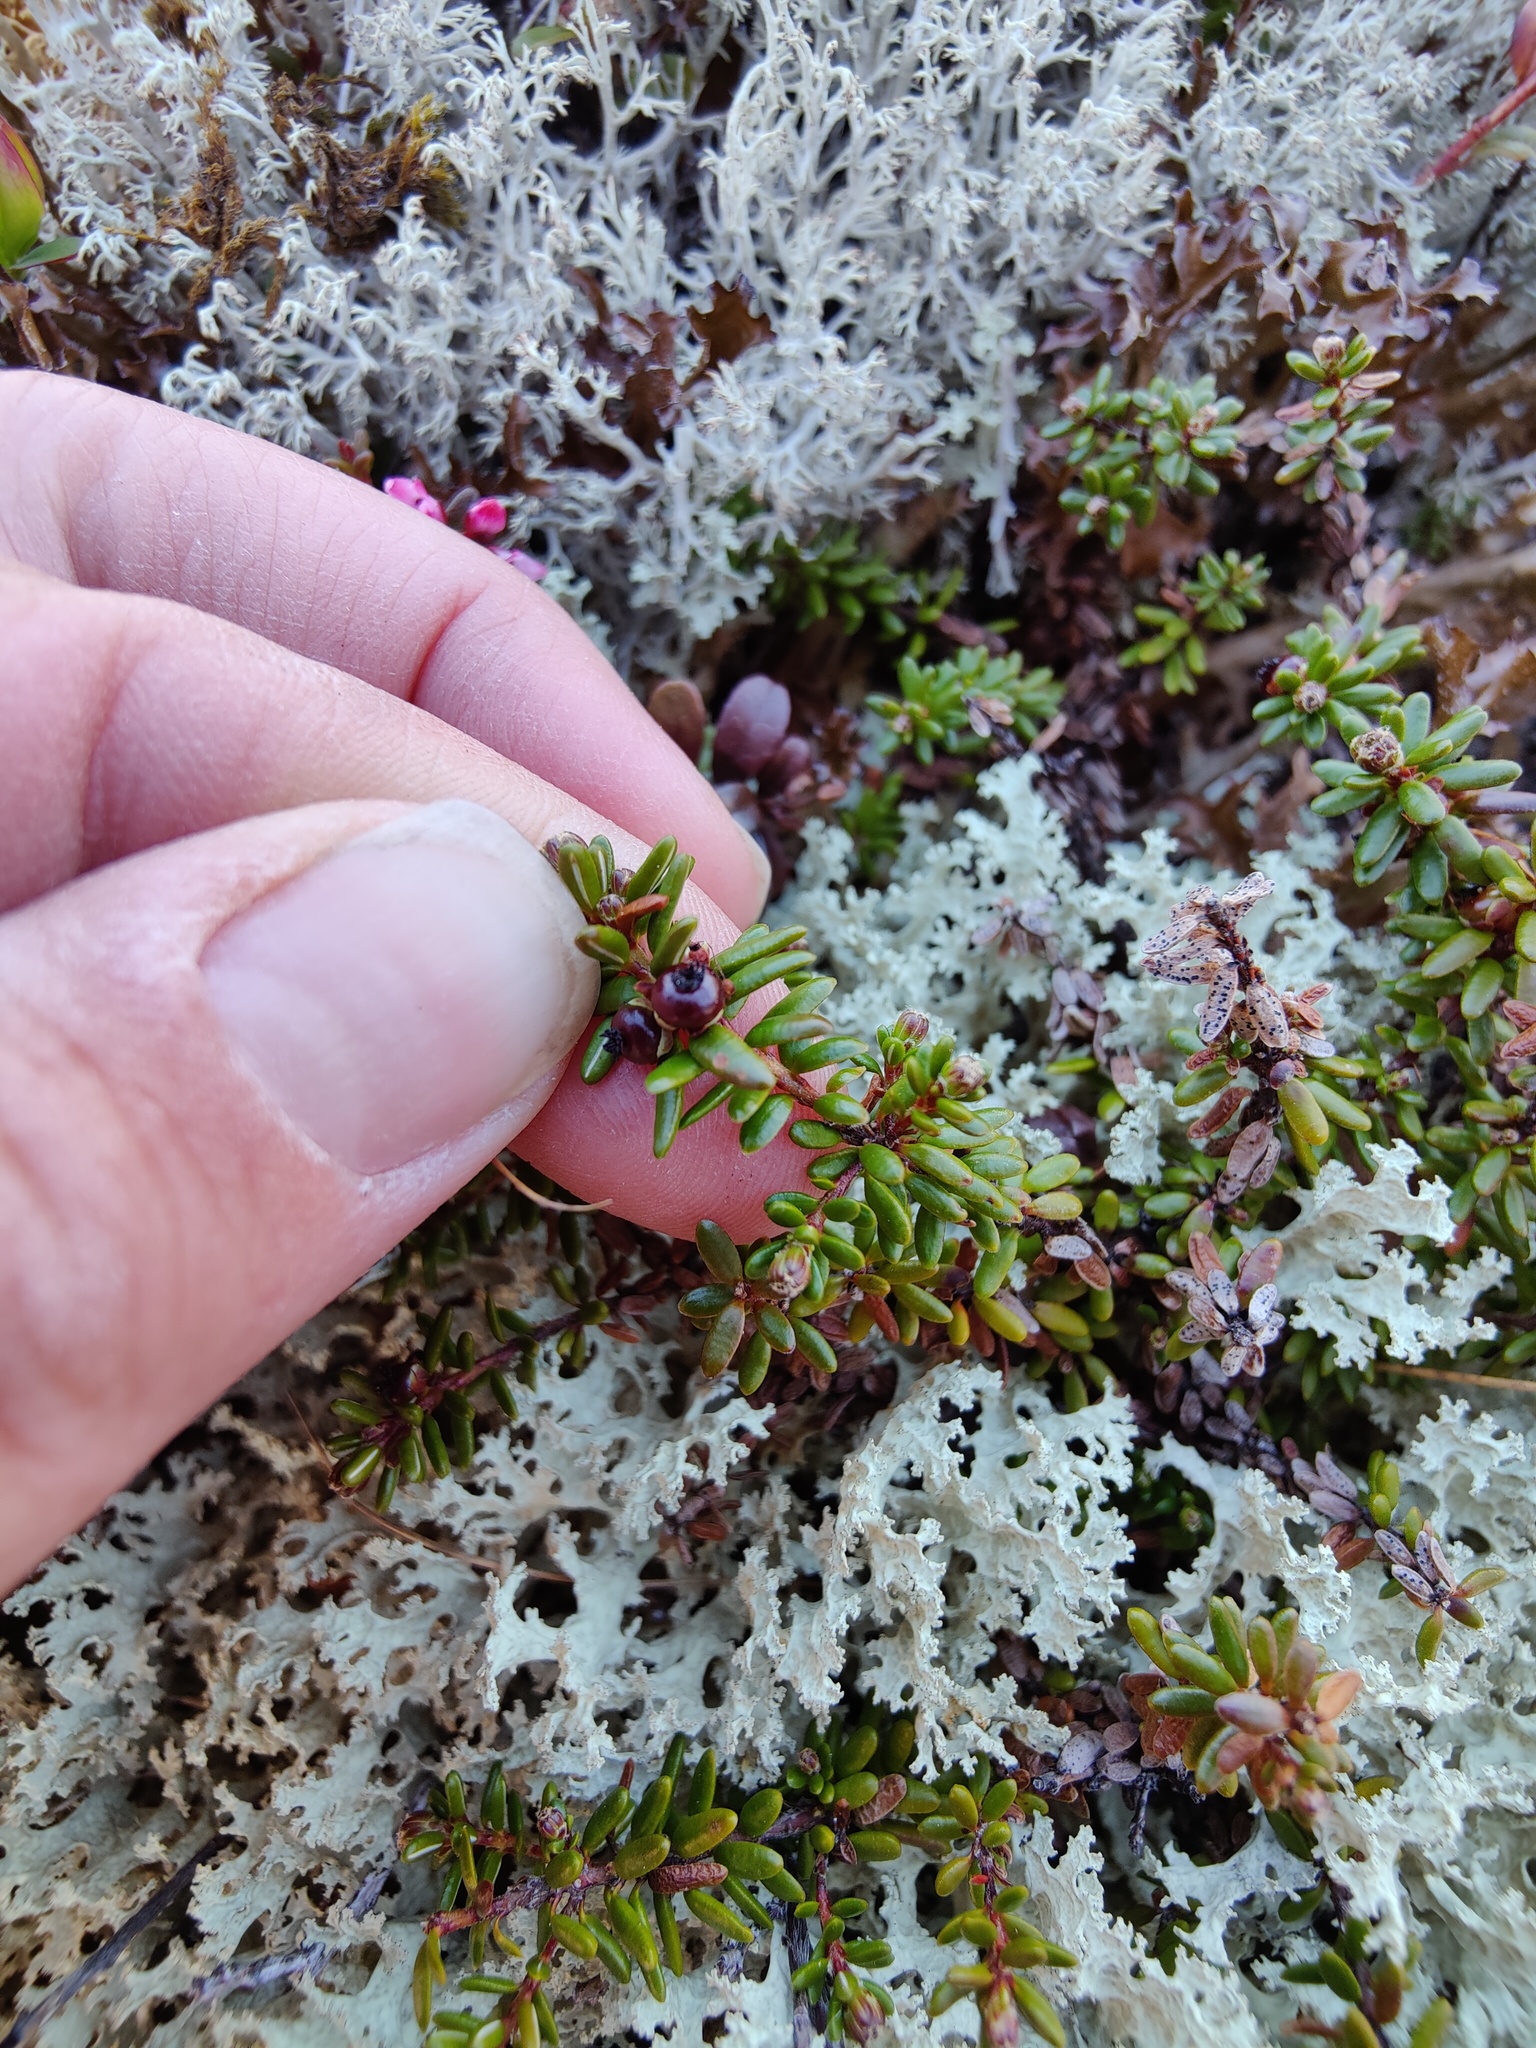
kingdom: Plantae
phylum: Tracheophyta
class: Magnoliopsida
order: Ericales
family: Ericaceae
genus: Empetrum
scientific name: Empetrum hermaphroditum
